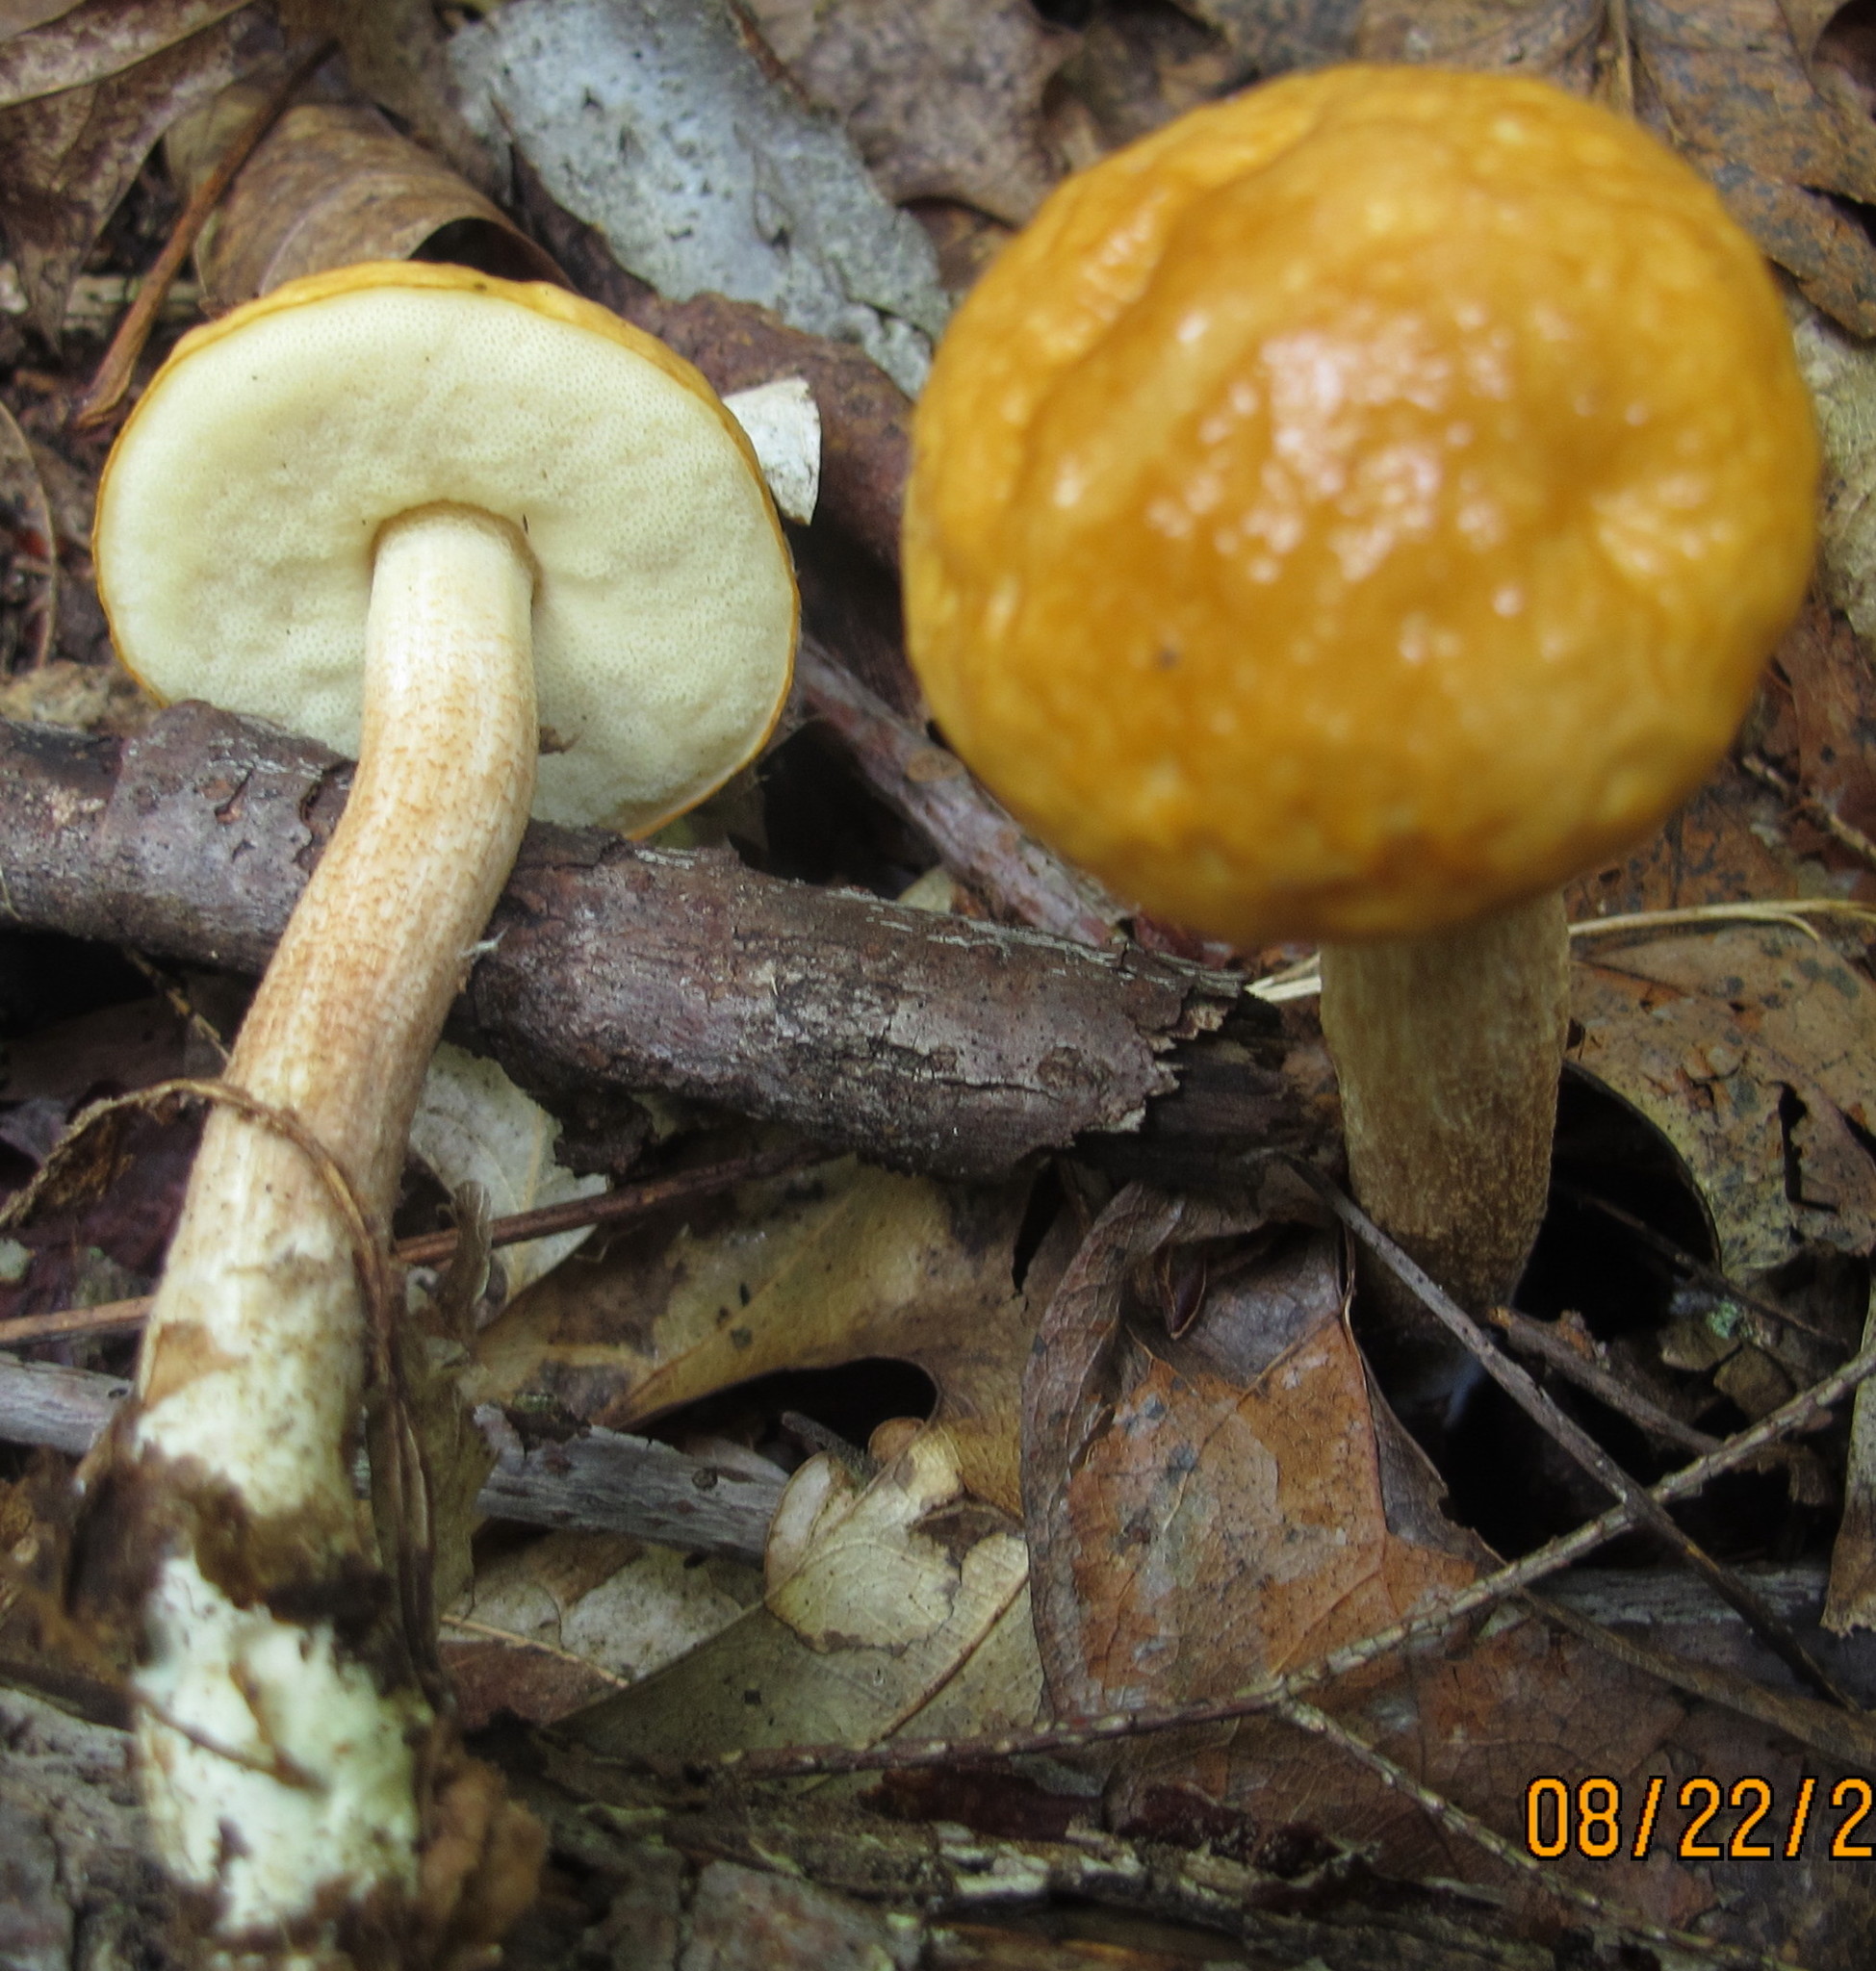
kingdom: Fungi
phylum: Basidiomycota
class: Agaricomycetes
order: Boletales
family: Boletaceae
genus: Leccinum
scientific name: Leccinum longicurvipes
